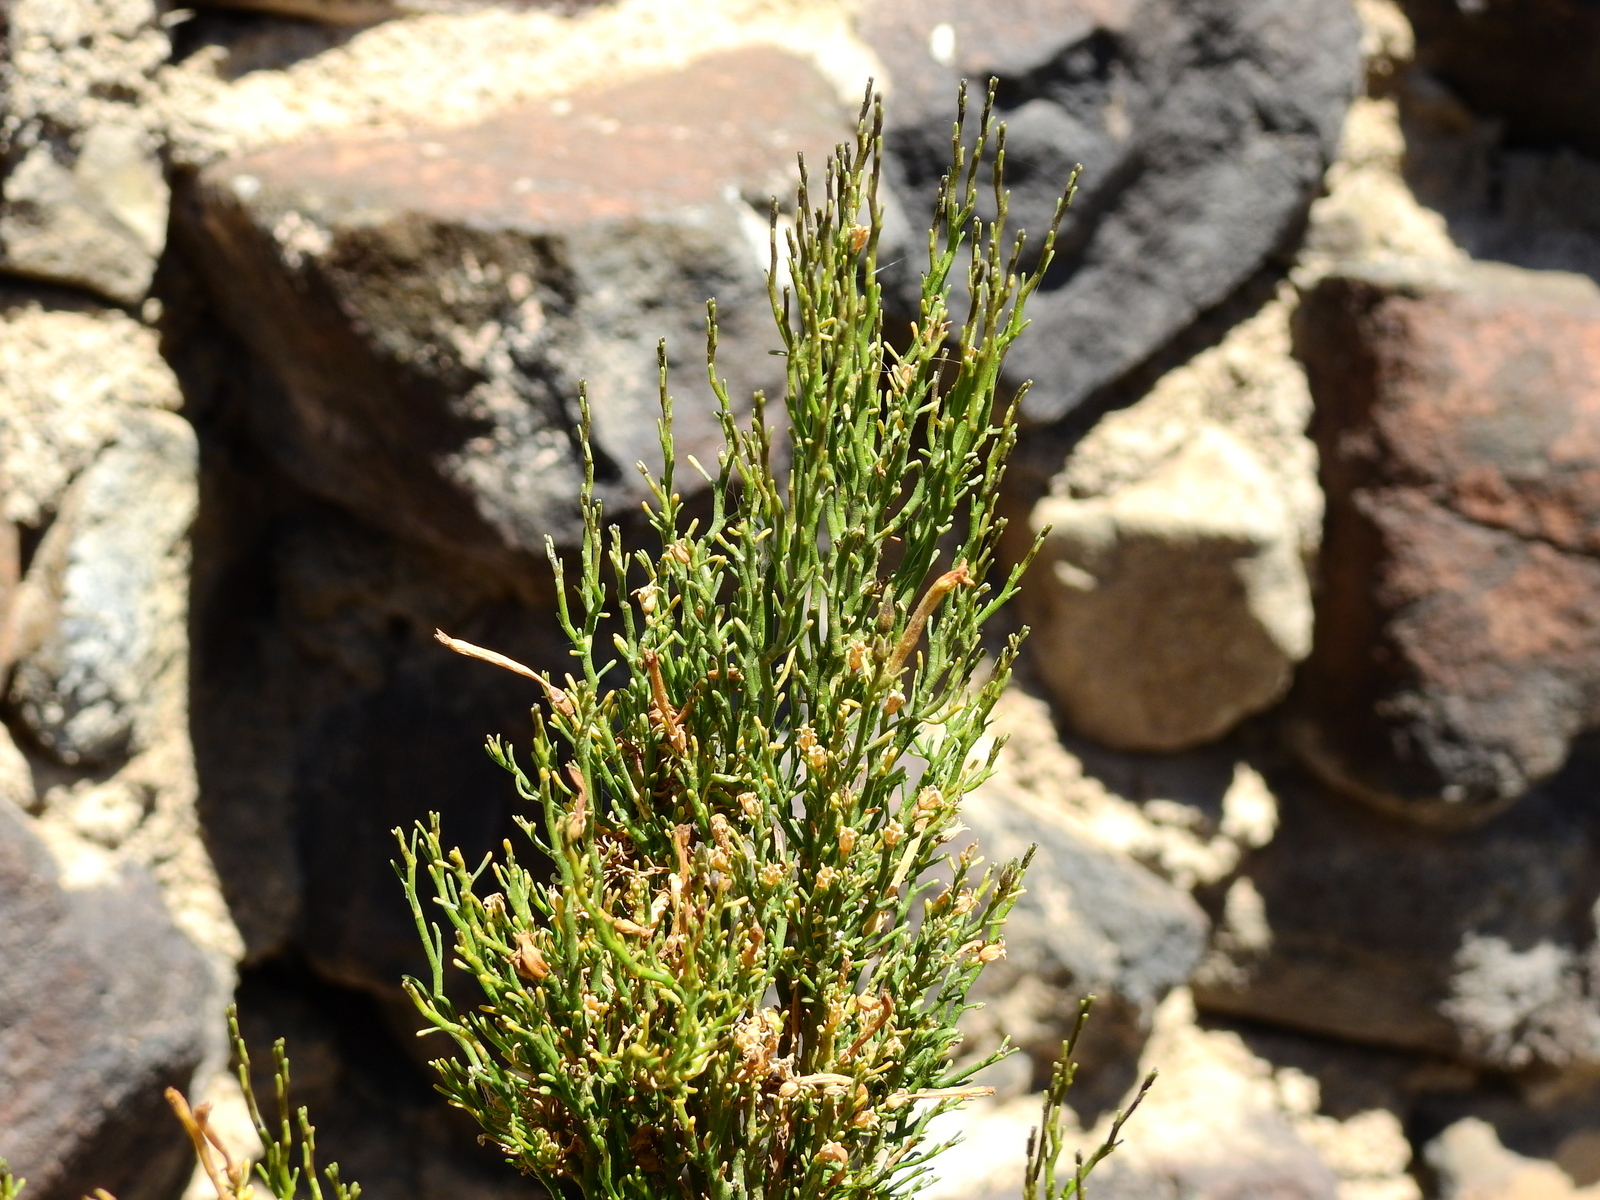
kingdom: Plantae
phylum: Tracheophyta
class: Magnoliopsida
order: Solanales
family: Solanaceae
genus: Fabiana
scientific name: Fabiana denudata
